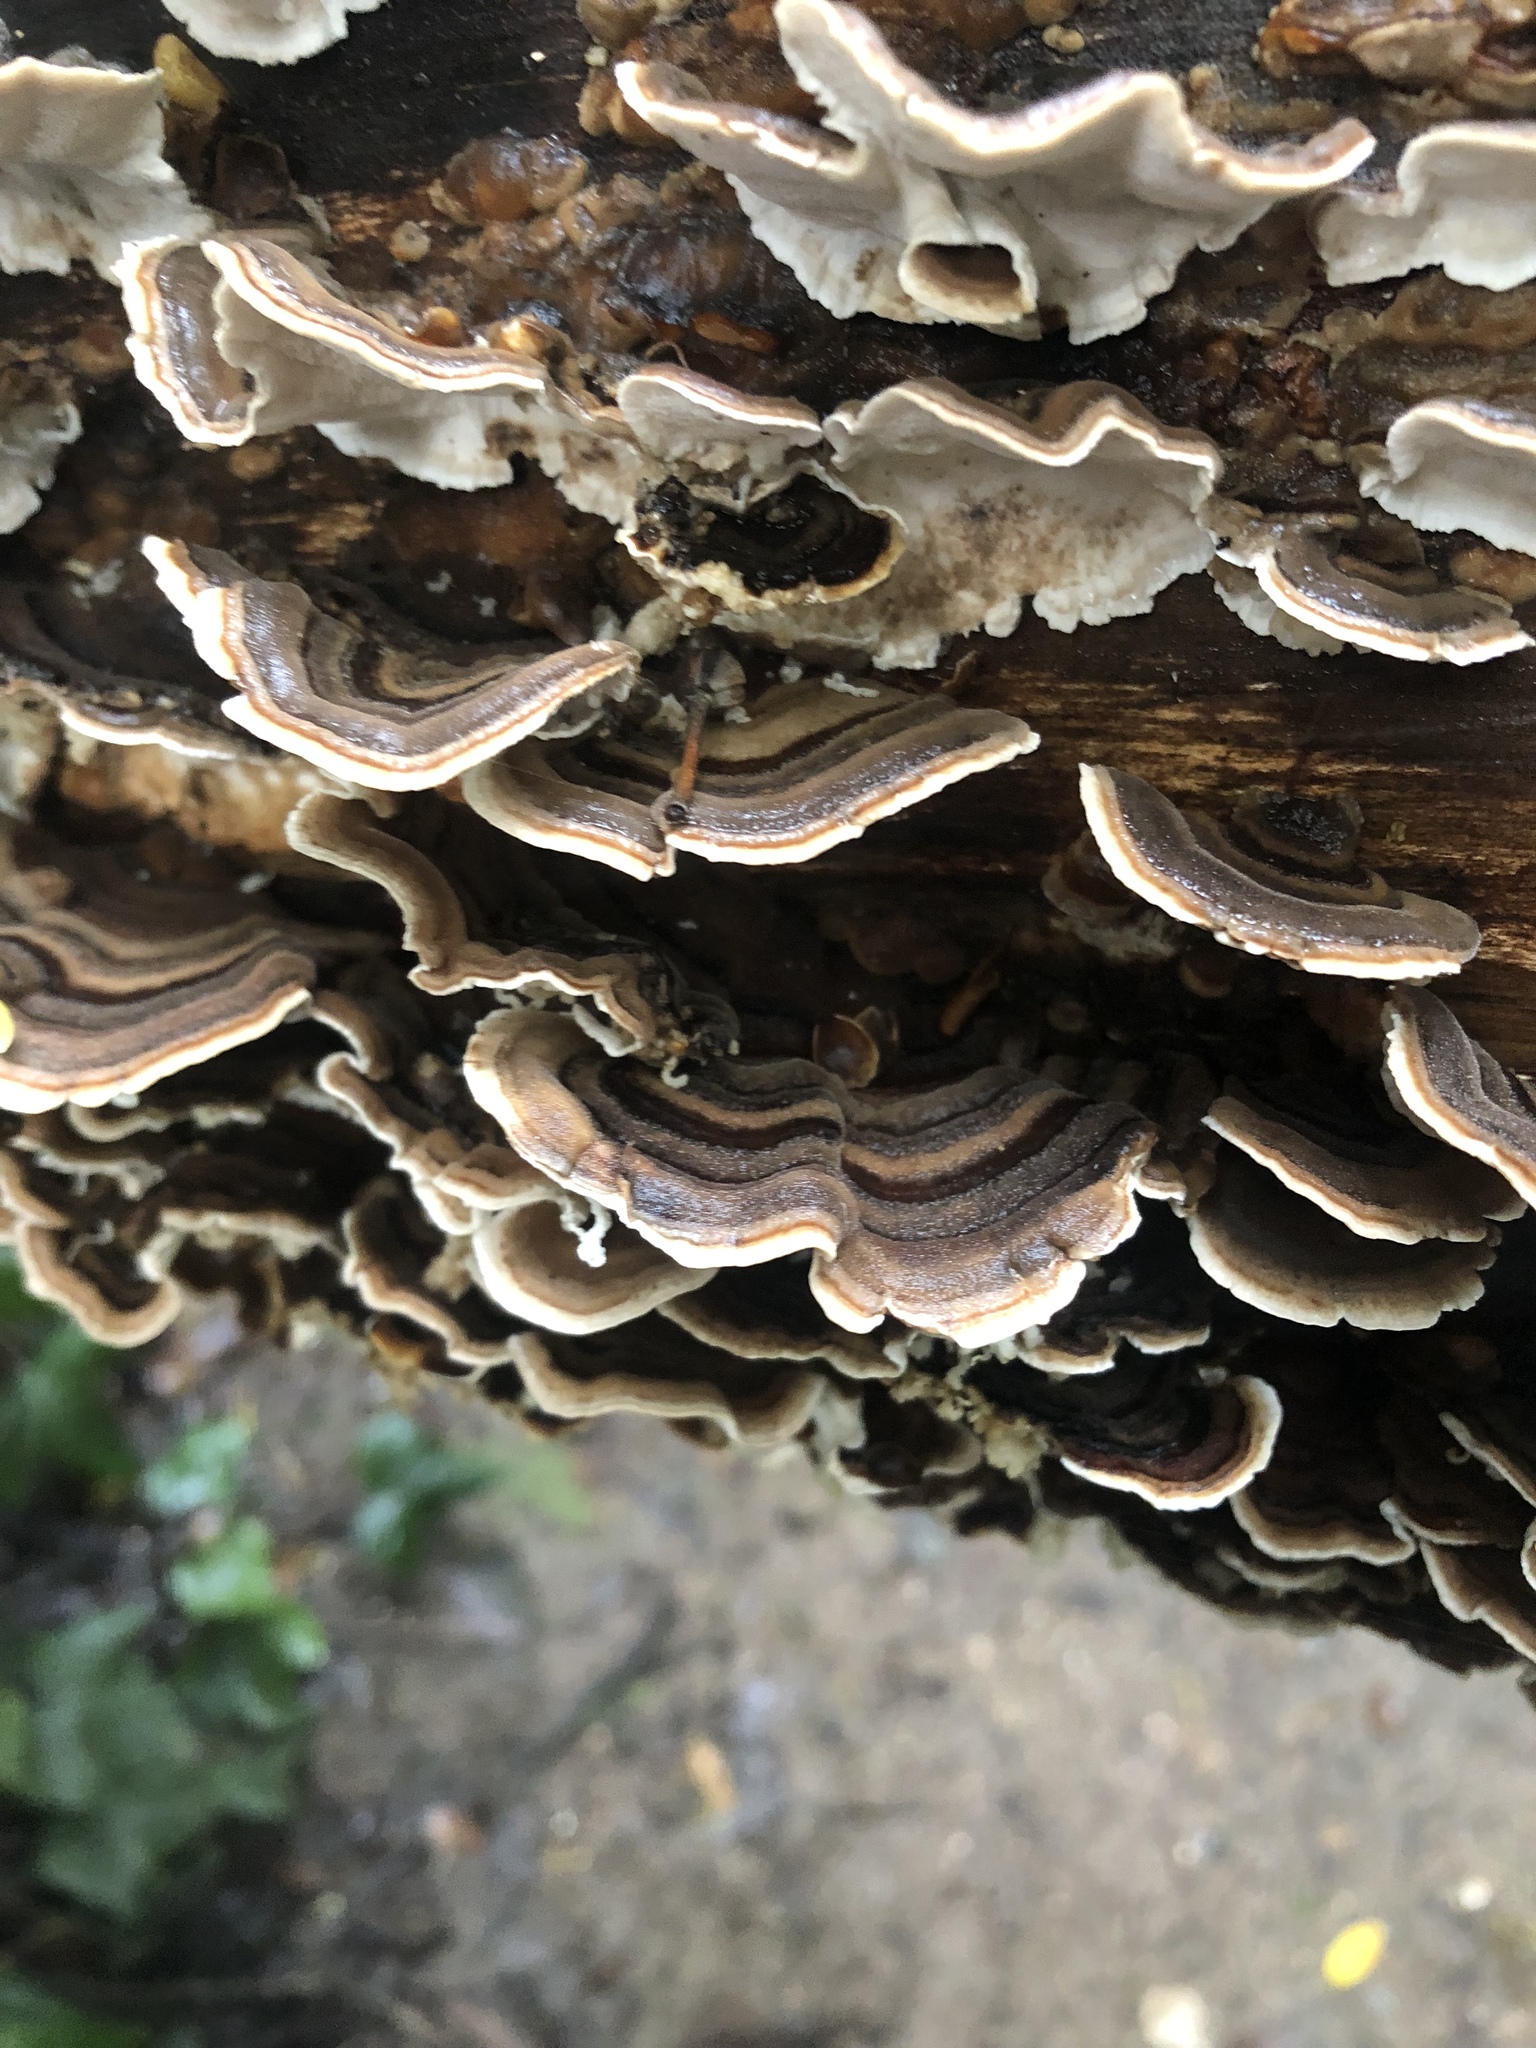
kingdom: Fungi
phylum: Basidiomycota
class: Agaricomycetes
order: Polyporales
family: Polyporaceae
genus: Trametes
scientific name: Trametes versicolor
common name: Turkeytail
